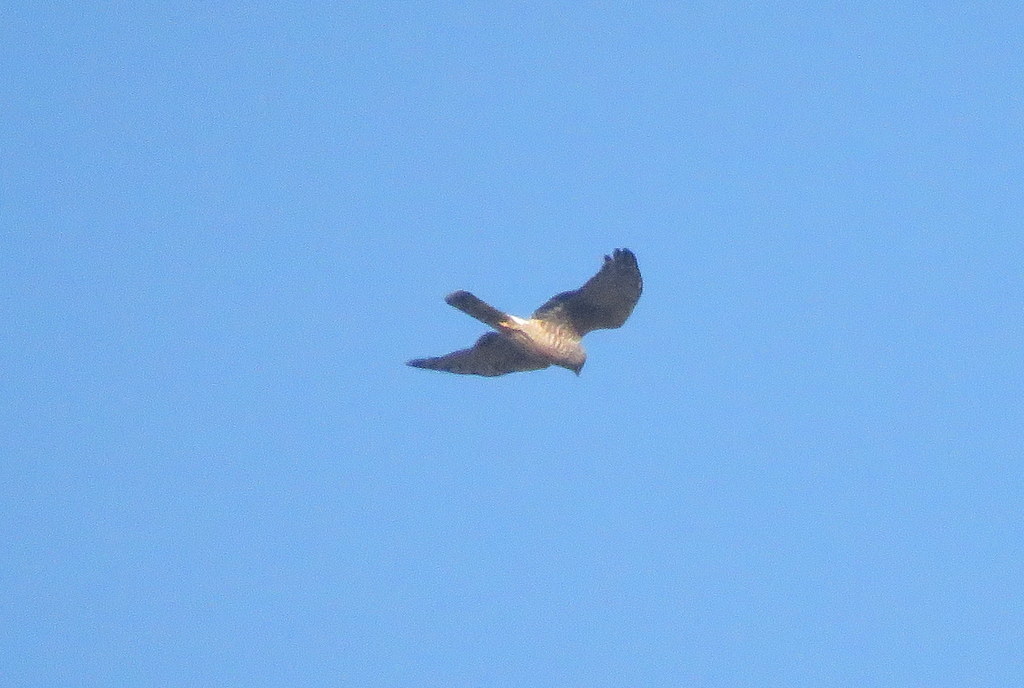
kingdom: Animalia
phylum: Chordata
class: Aves
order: Accipitriformes
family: Accipitridae
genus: Circus
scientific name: Circus cinereus
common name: Cinereous harrier
